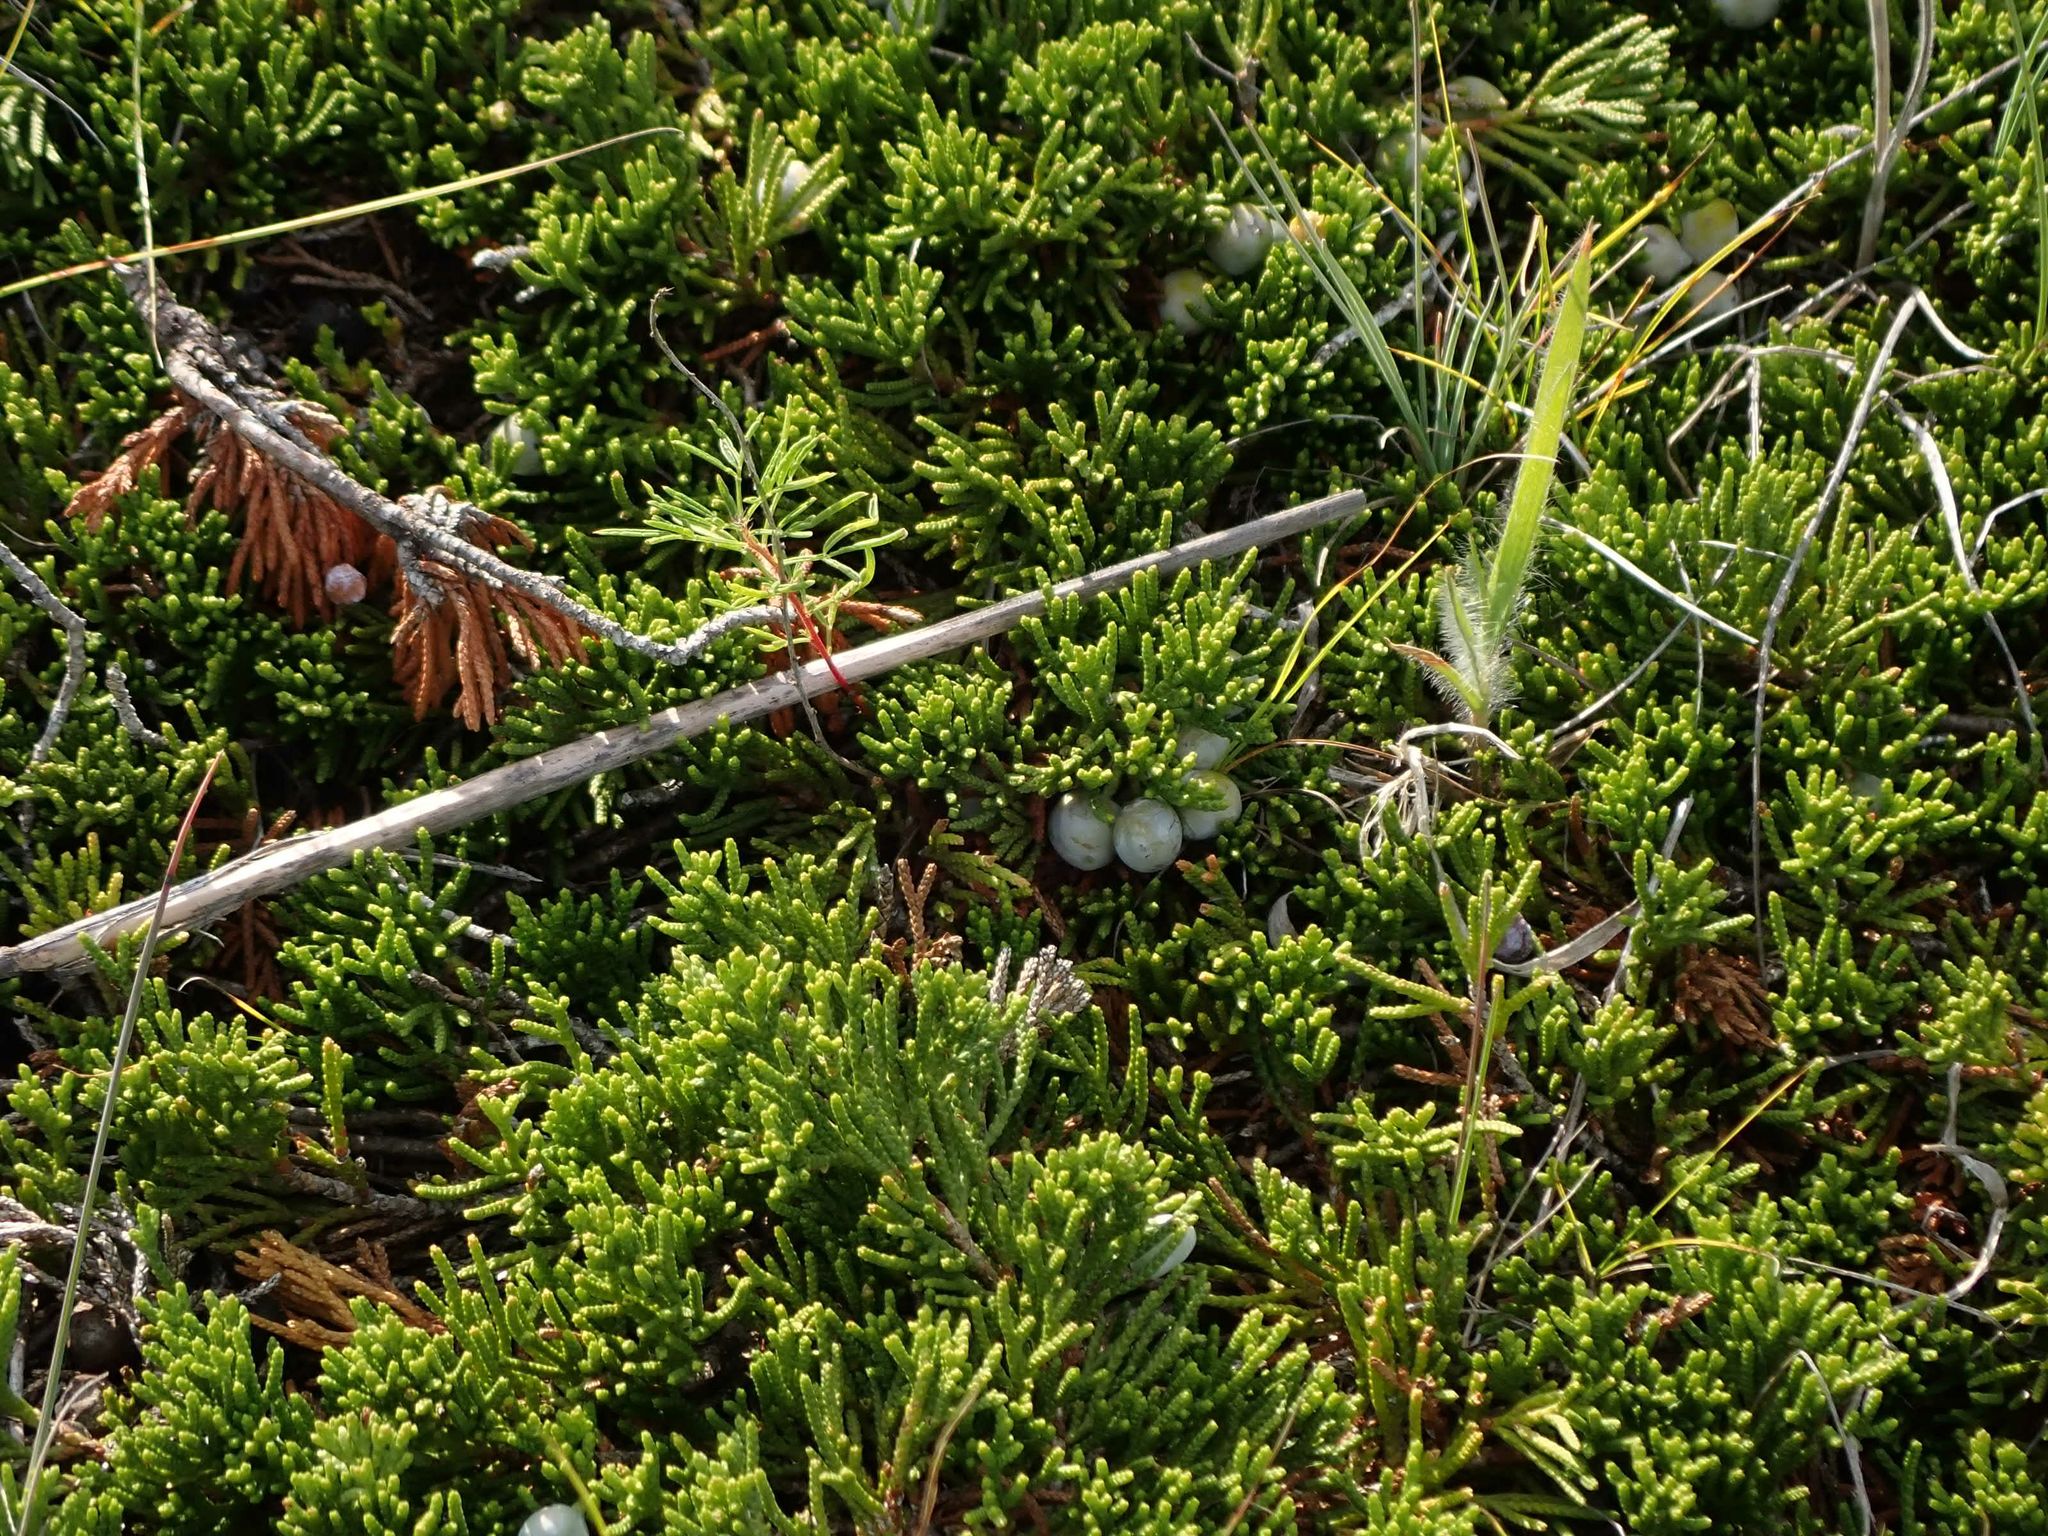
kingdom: Plantae
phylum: Tracheophyta
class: Pinopsida
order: Pinales
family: Cupressaceae
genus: Juniperus
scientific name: Juniperus horizontalis
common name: Creeping juniper
